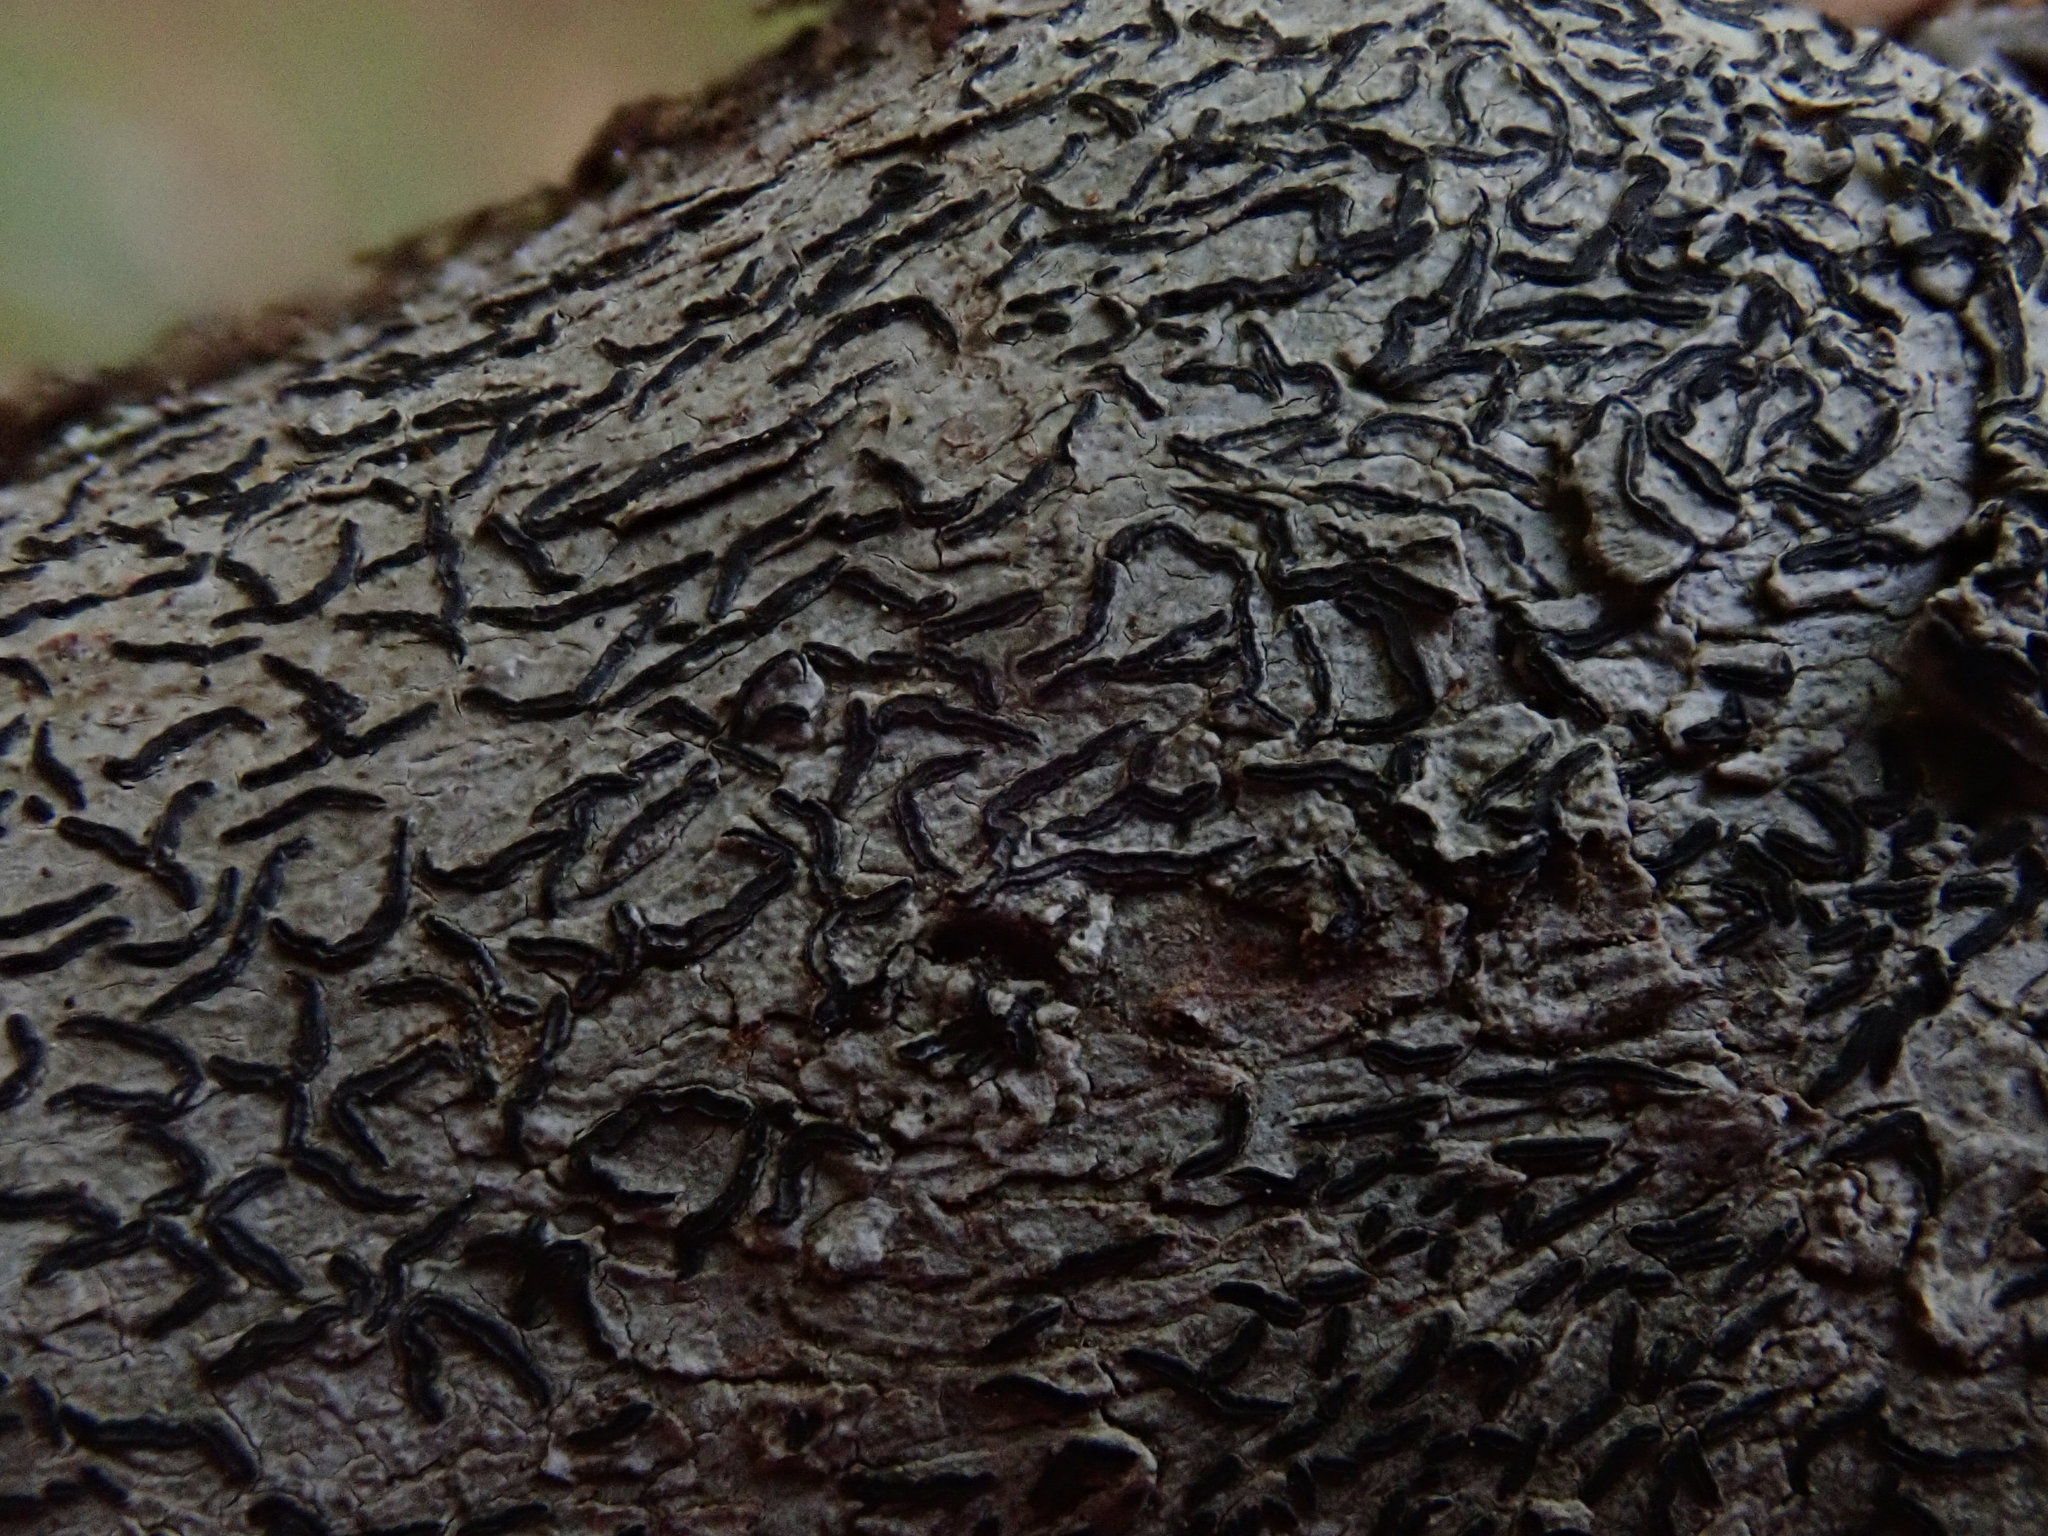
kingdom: Fungi
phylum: Ascomycota
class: Lecanoromycetes
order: Ostropales
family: Graphidaceae
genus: Graphis
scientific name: Graphis scripta
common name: Script lichen
